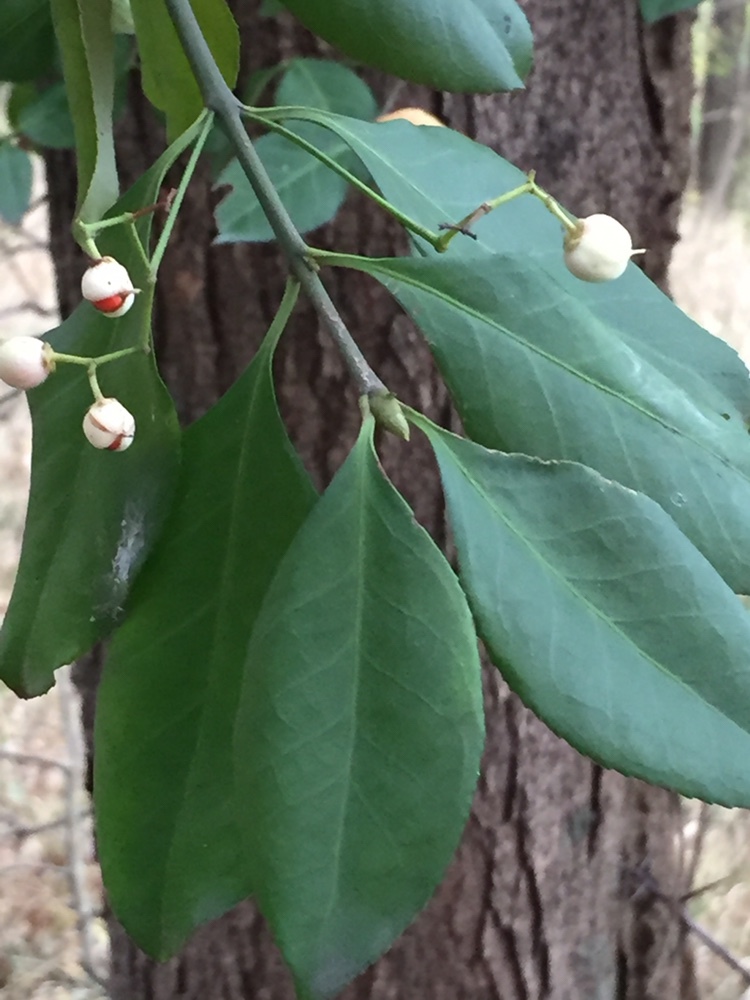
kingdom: Plantae
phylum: Tracheophyta
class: Magnoliopsida
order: Celastrales
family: Celastraceae
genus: Euonymus
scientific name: Euonymus fortunei
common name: Climbing euonymus
